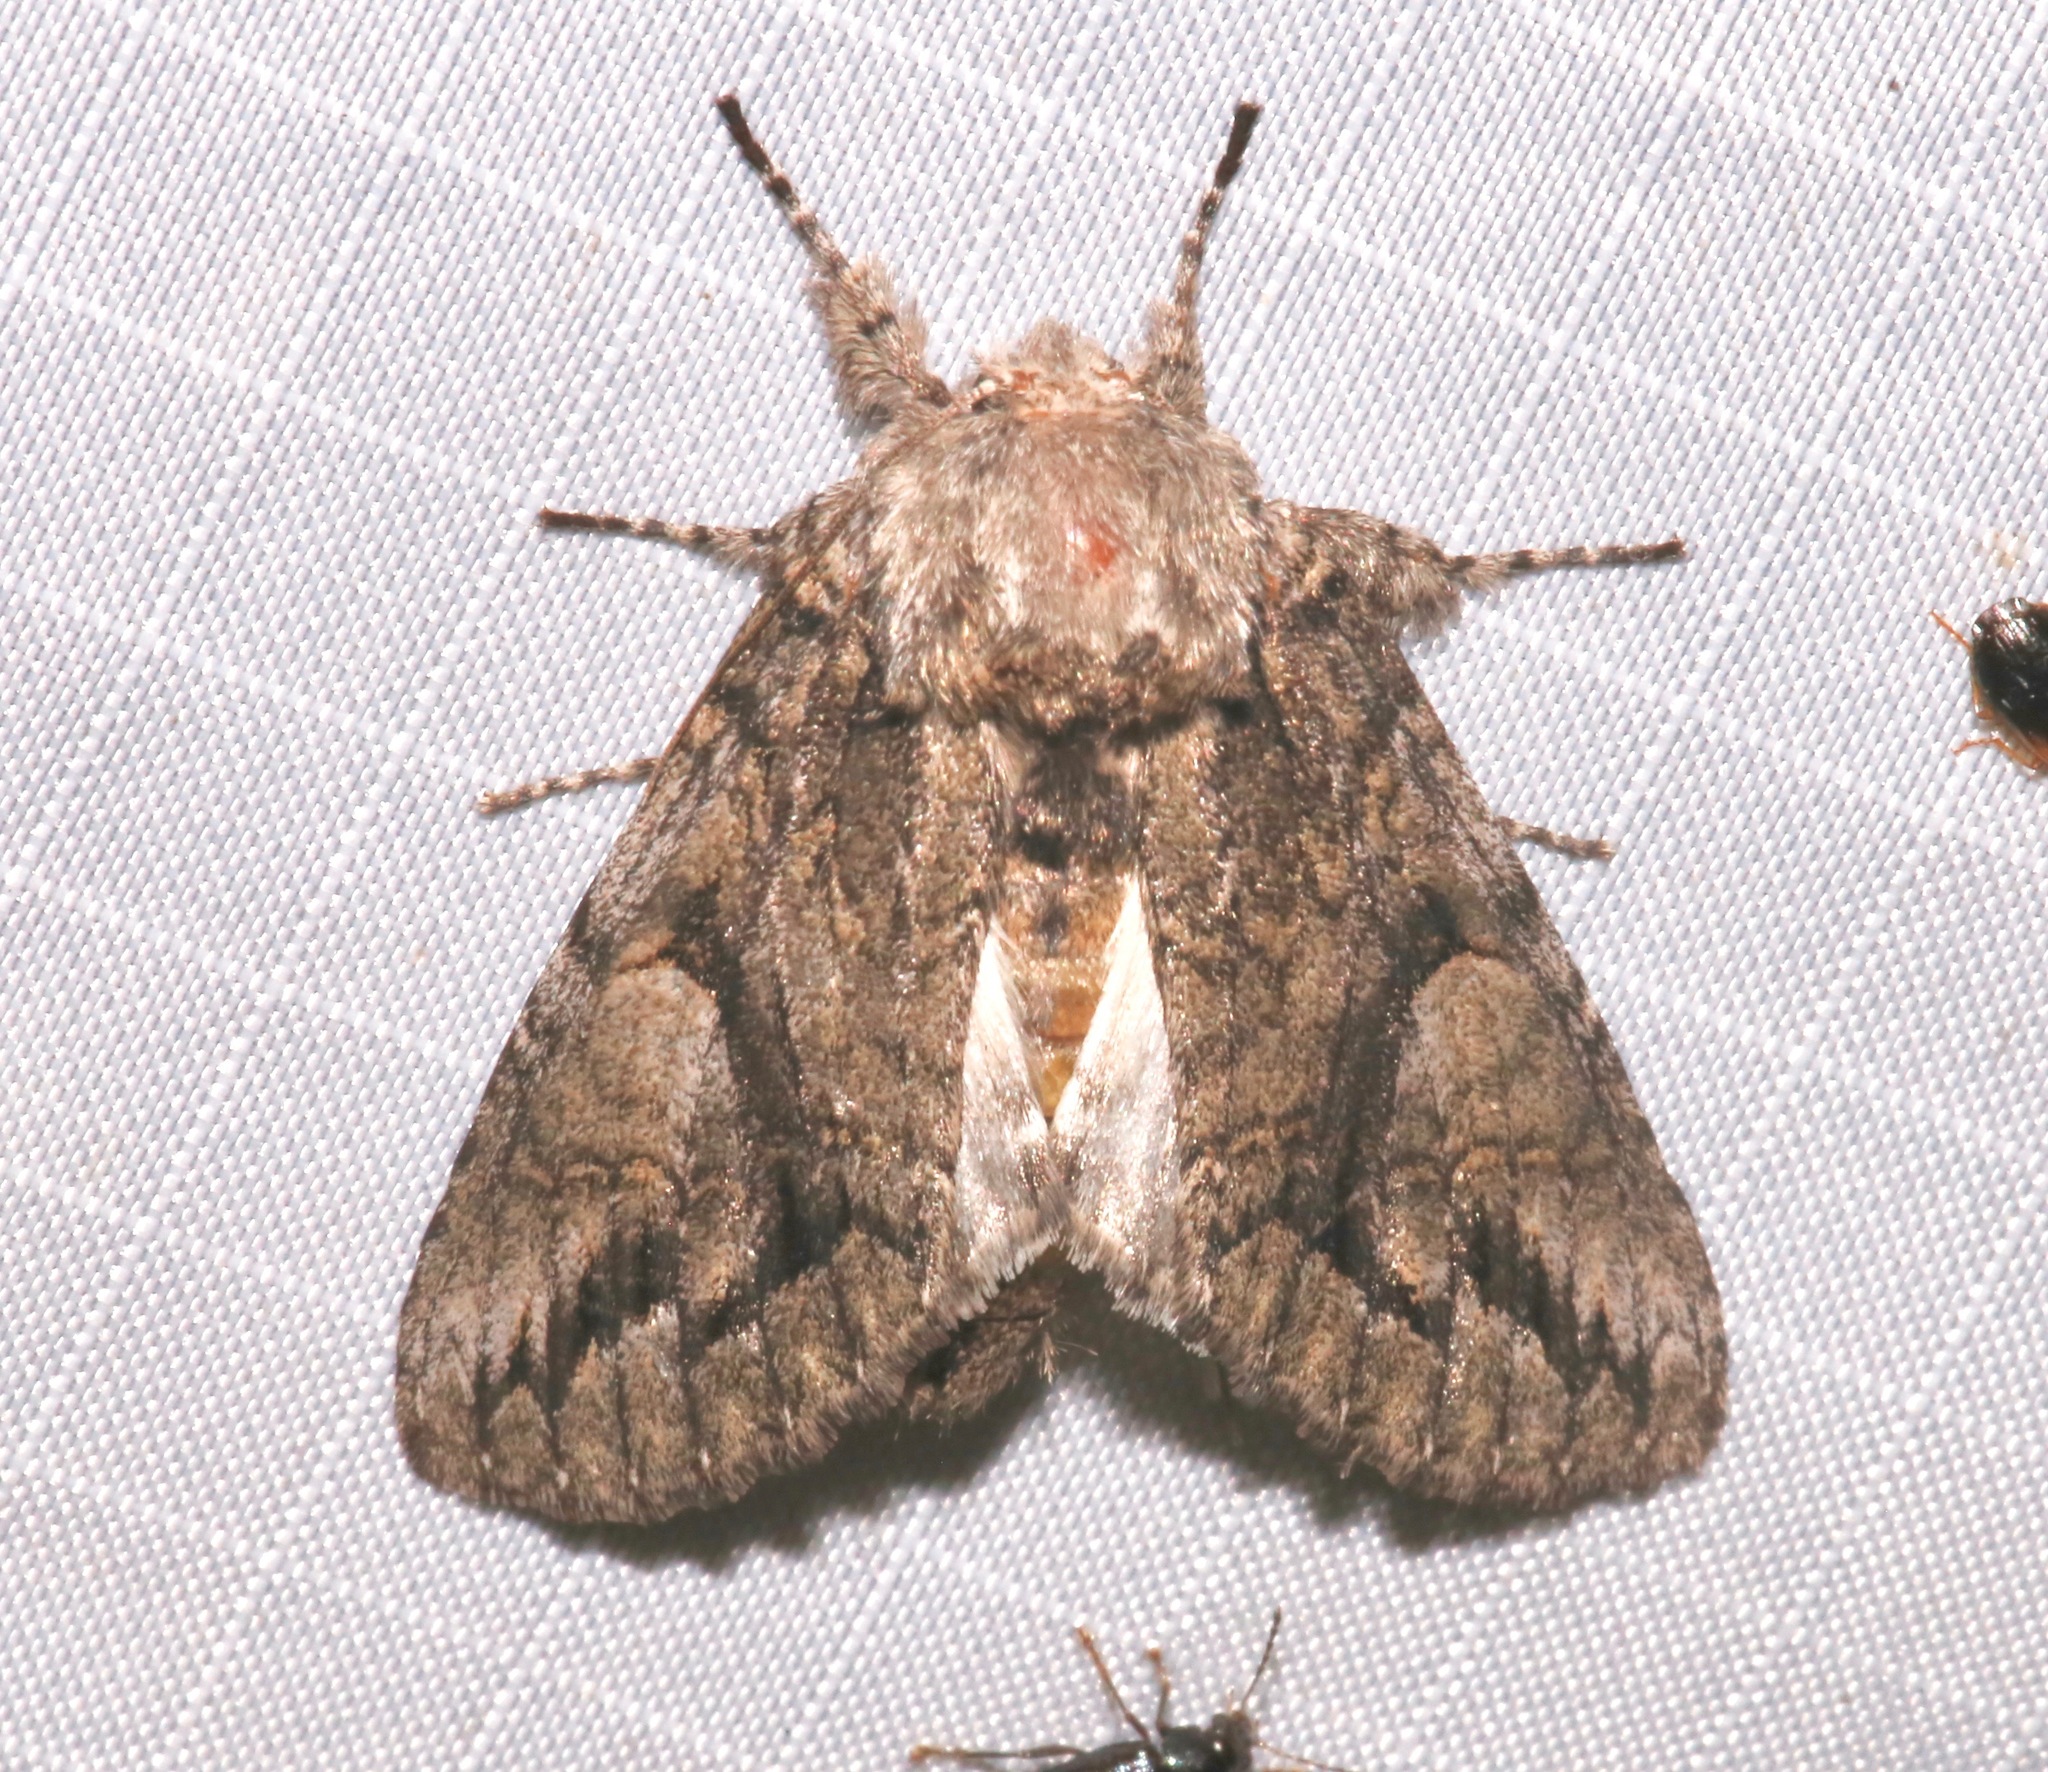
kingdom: Animalia
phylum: Arthropoda
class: Insecta
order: Lepidoptera
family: Notodontidae
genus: Heterocampa
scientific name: Heterocampa averna
